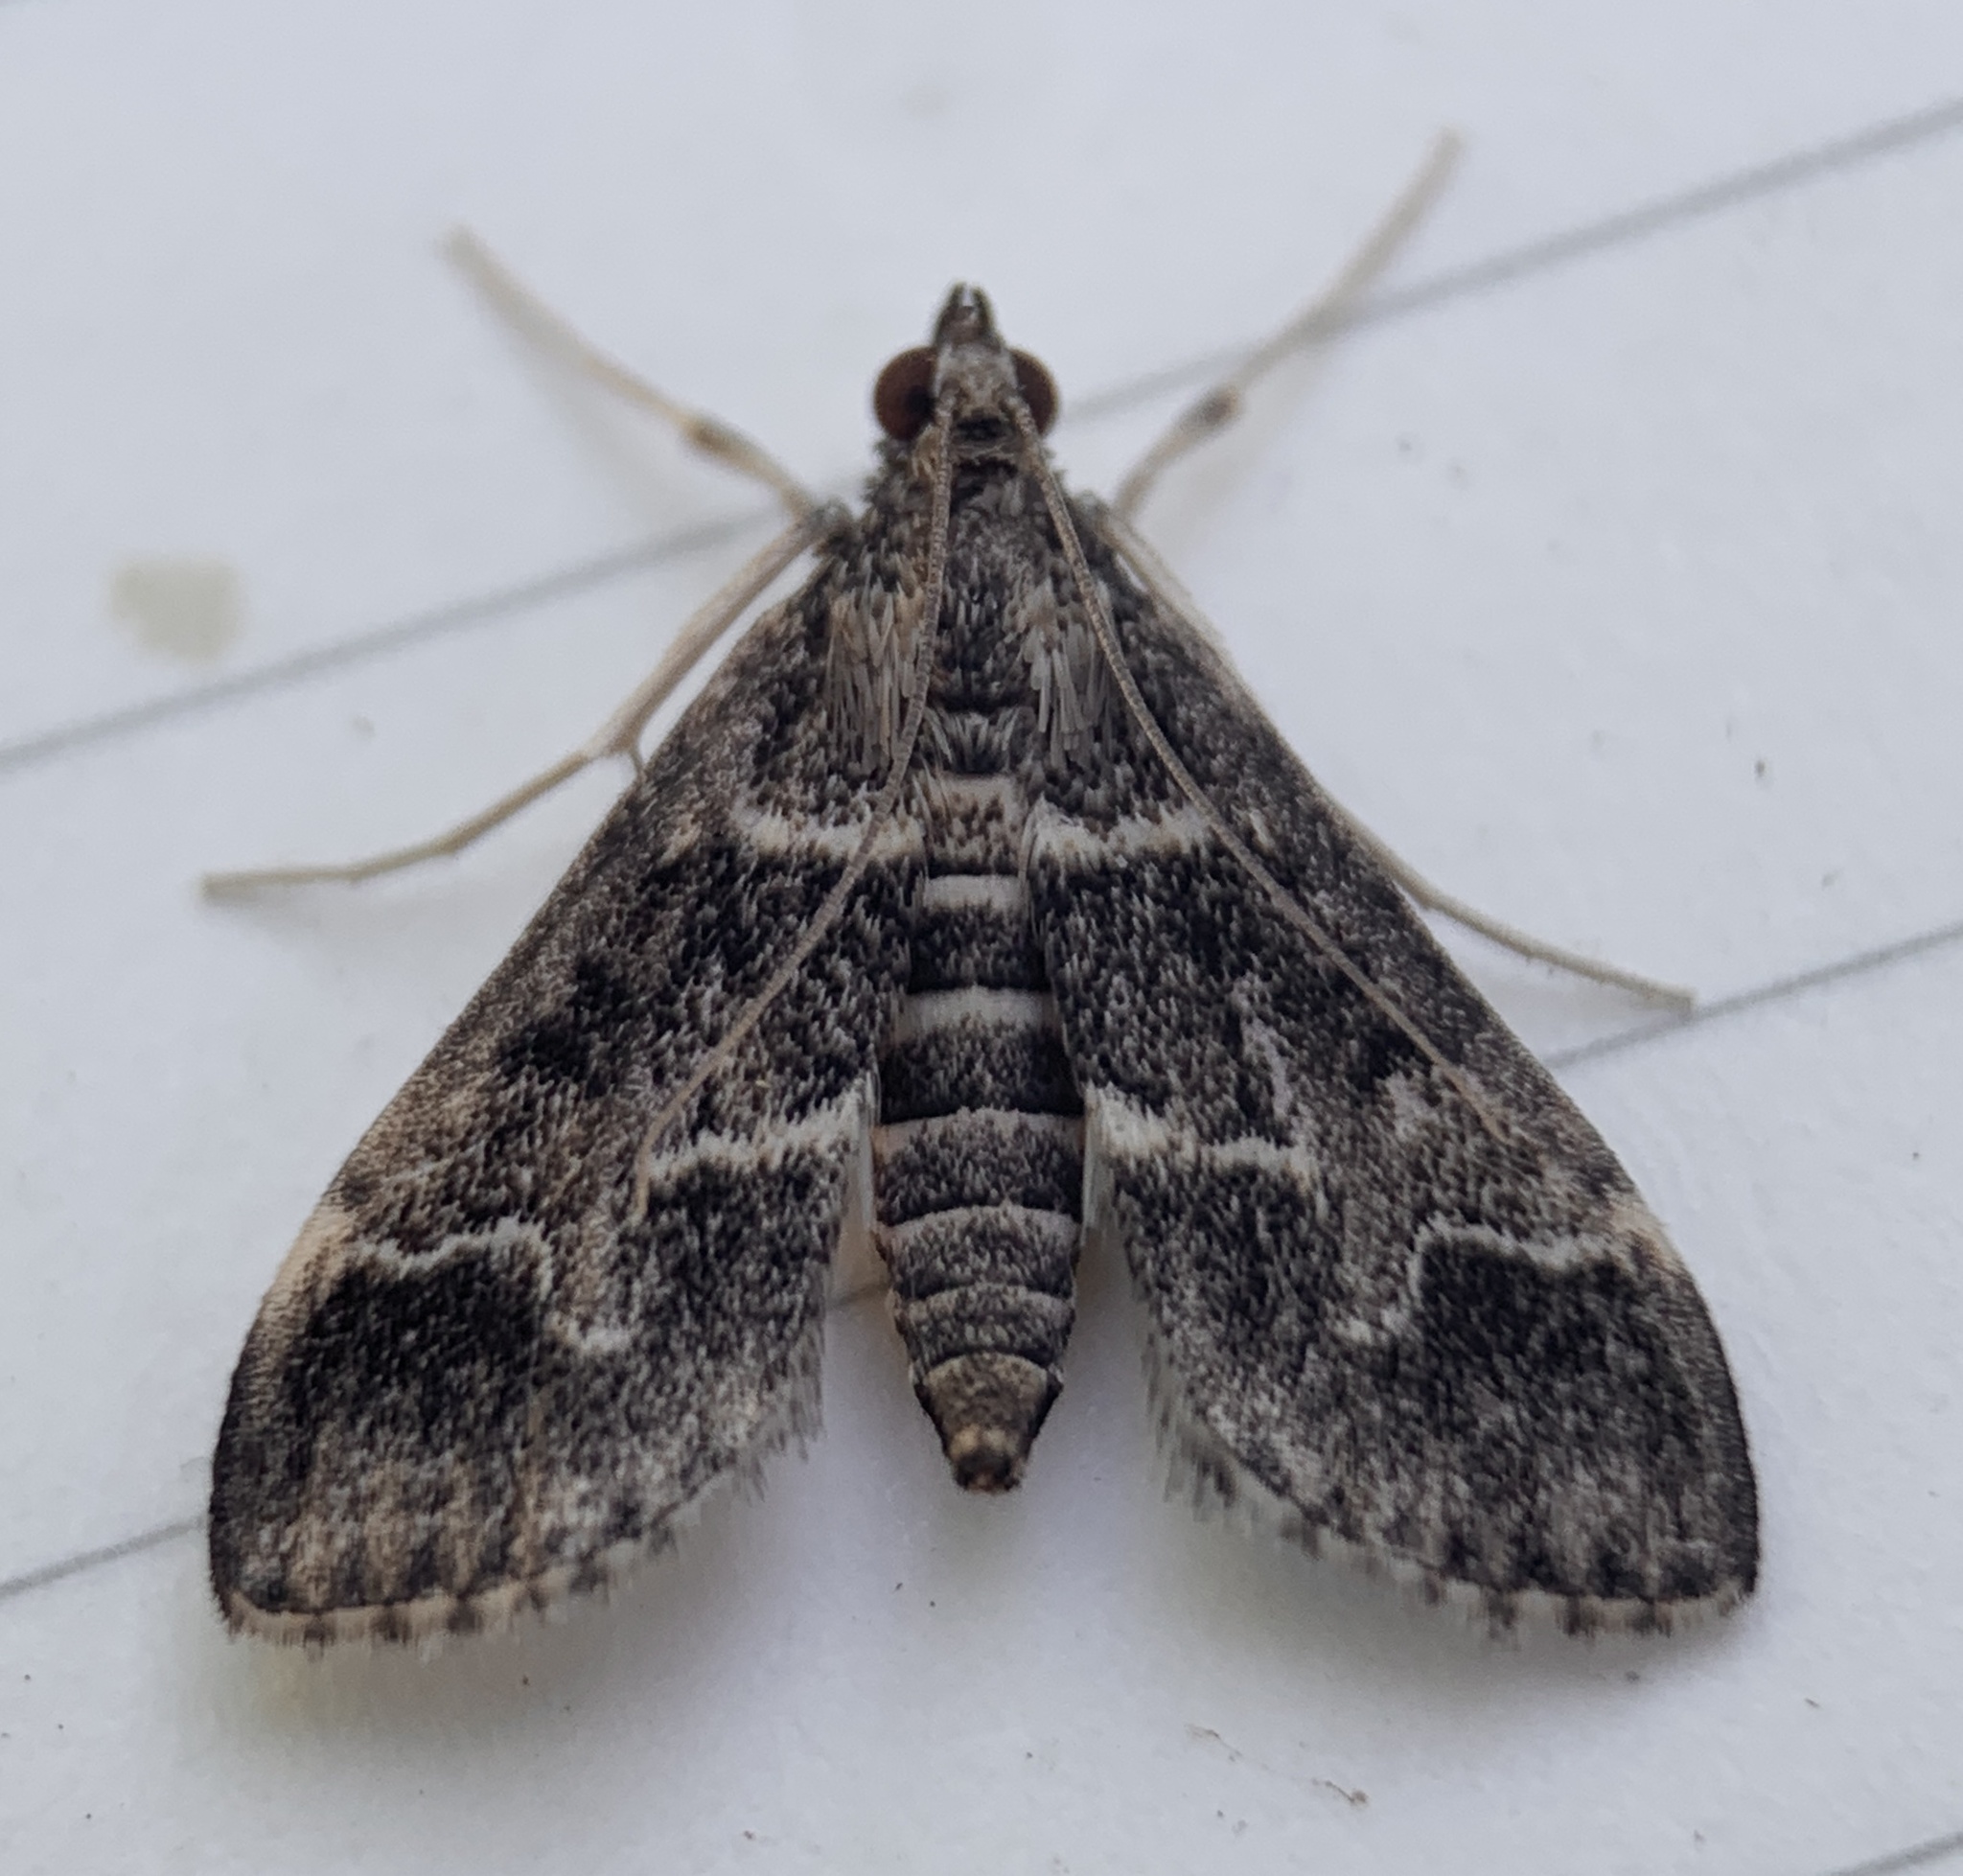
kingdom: Animalia
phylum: Arthropoda
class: Insecta
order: Lepidoptera
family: Crambidae
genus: Duponchelia
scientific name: Duponchelia fovealis
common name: Crambid moth
